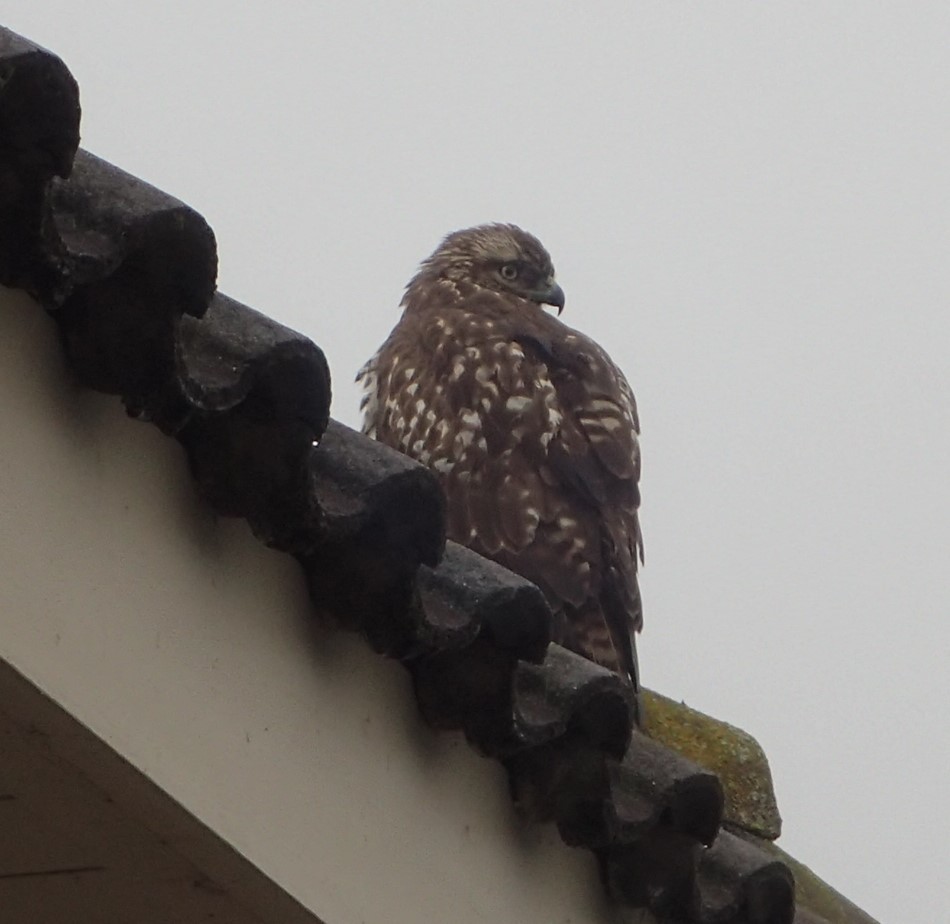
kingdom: Animalia
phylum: Chordata
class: Aves
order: Accipitriformes
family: Accipitridae
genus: Buteo
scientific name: Buteo jamaicensis
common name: Red-tailed hawk
